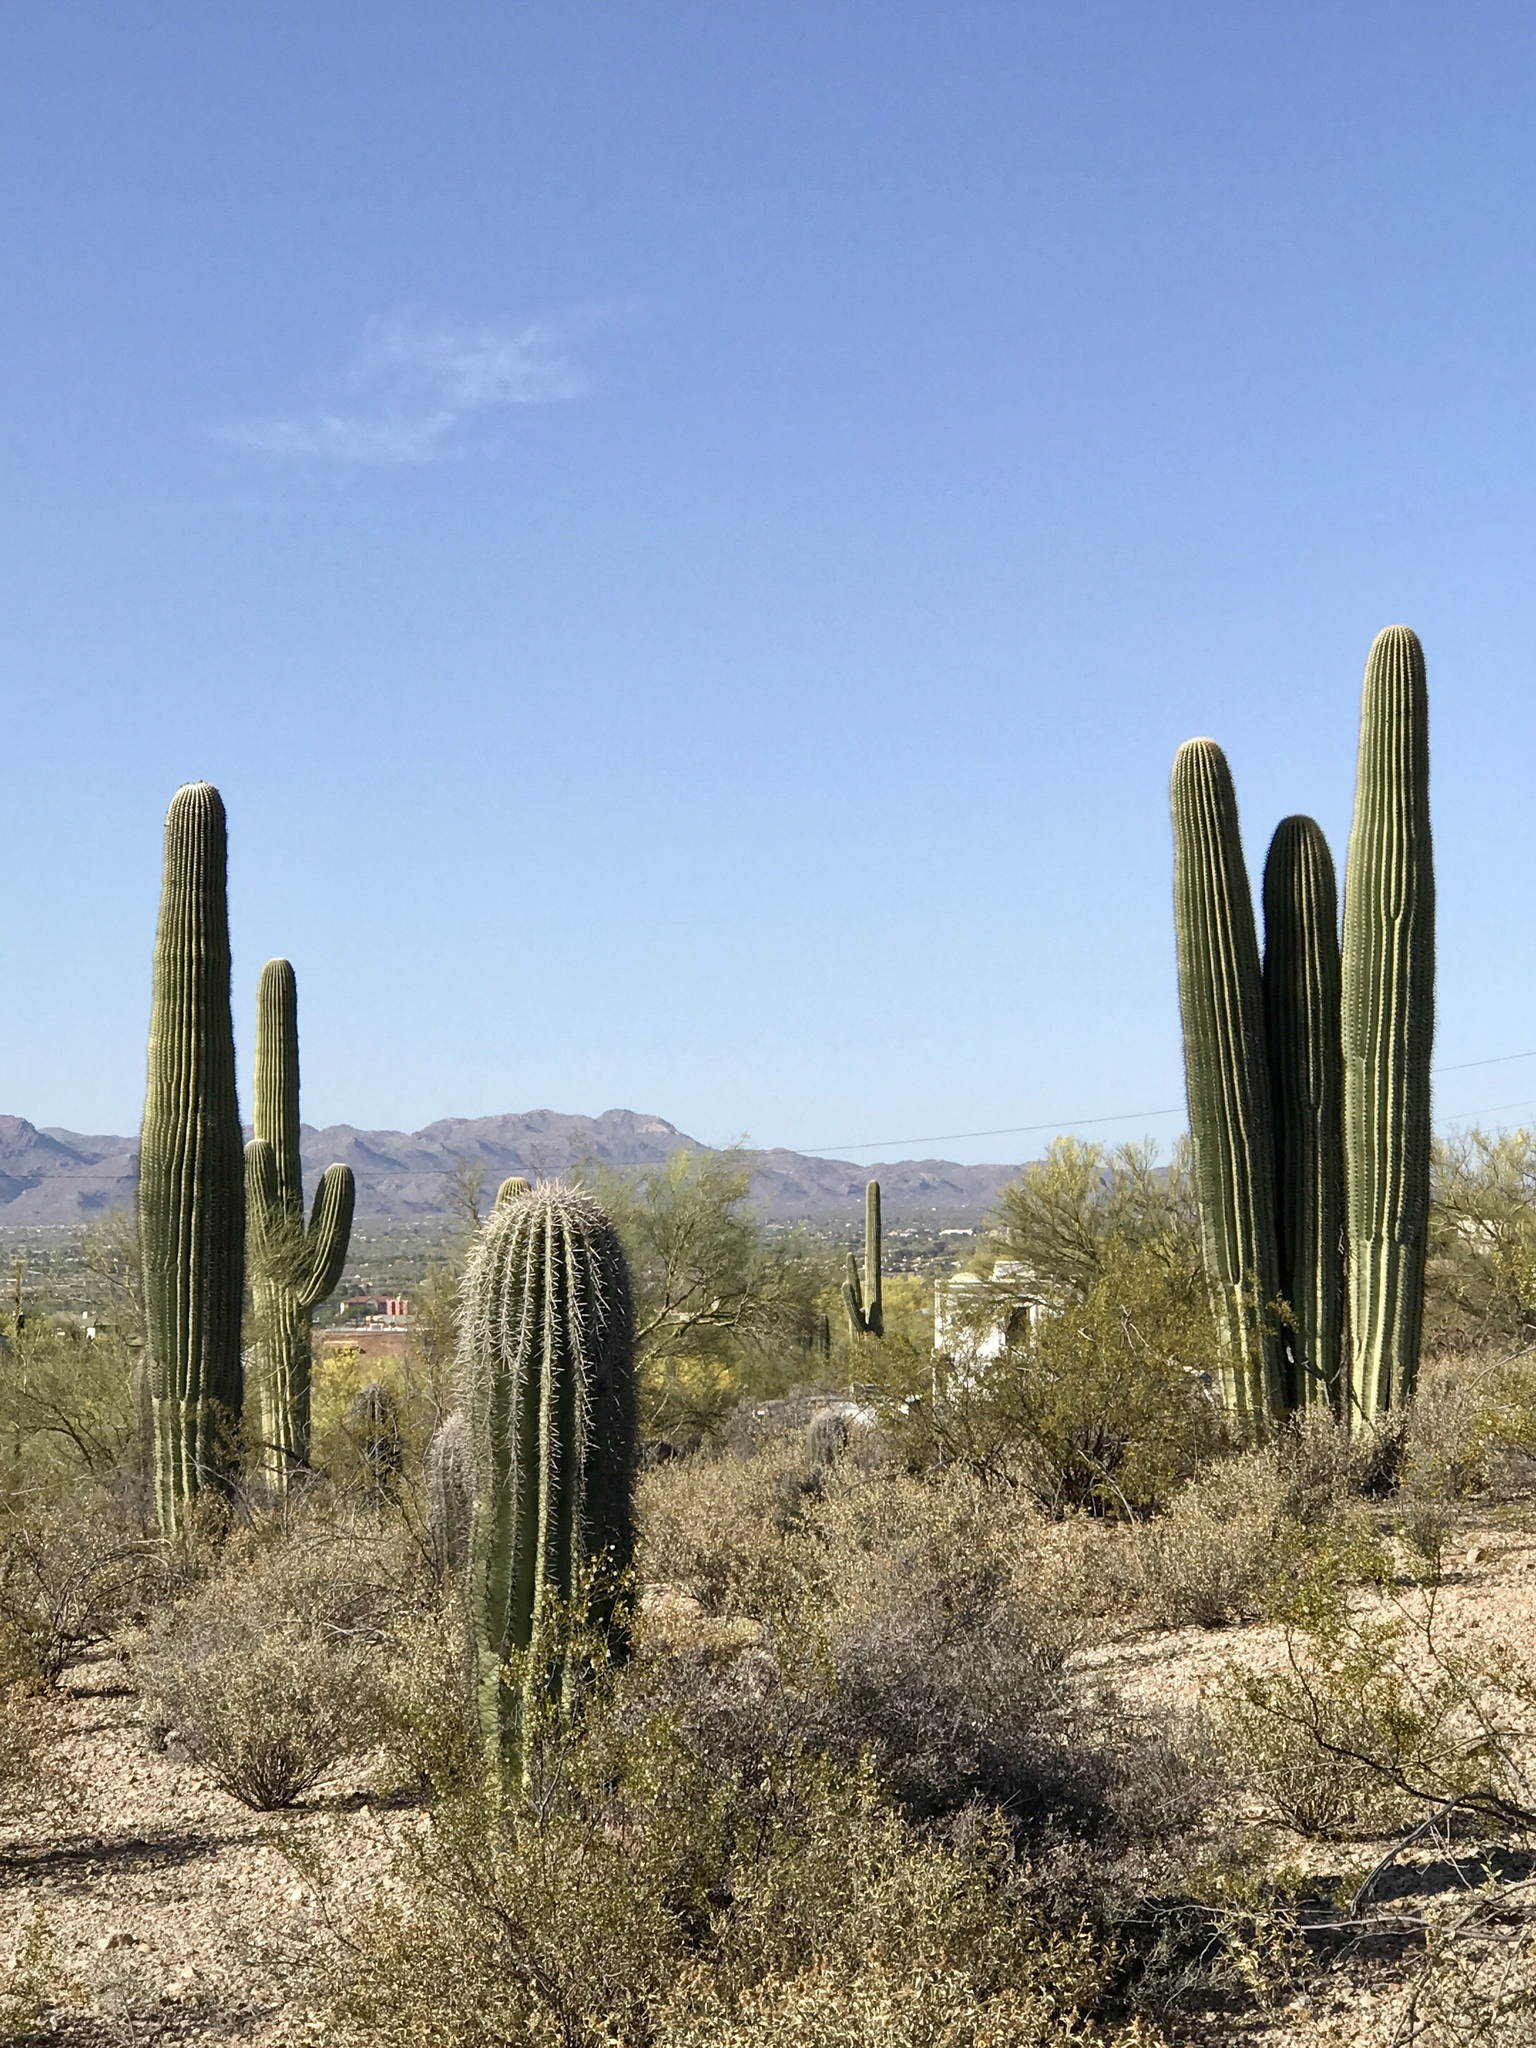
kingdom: Plantae
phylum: Tracheophyta
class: Magnoliopsida
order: Caryophyllales
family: Cactaceae
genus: Carnegiea
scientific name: Carnegiea gigantea
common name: Saguaro
